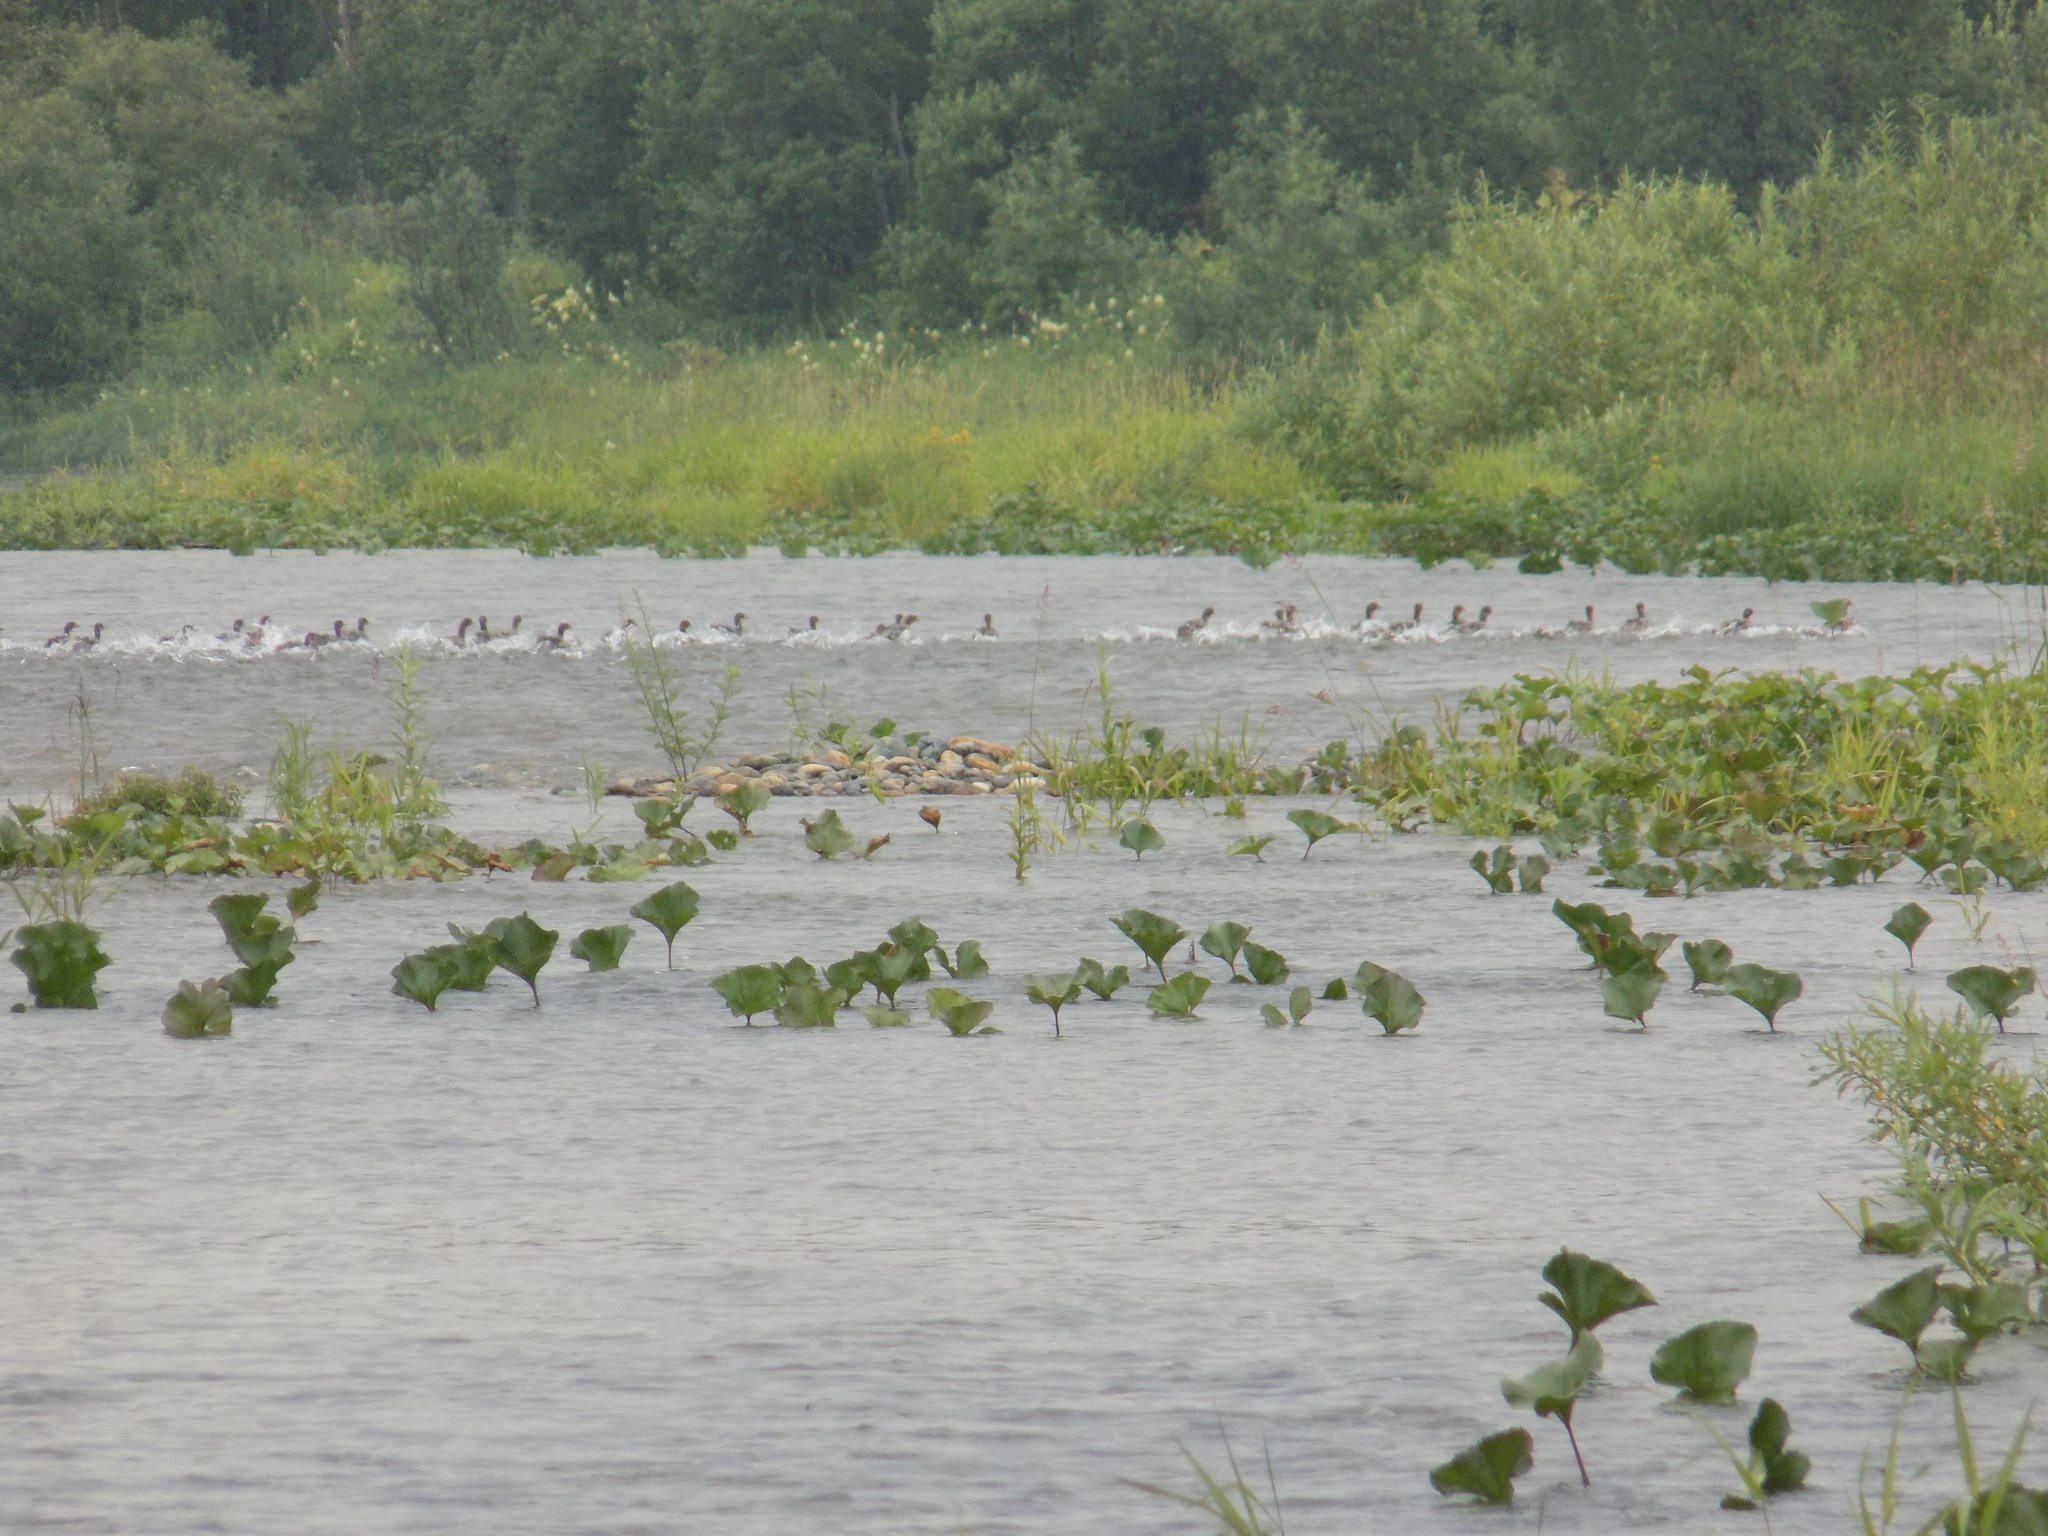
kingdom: Animalia
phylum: Chordata
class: Aves
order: Anseriformes
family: Anatidae
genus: Mergus
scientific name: Mergus merganser
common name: Common merganser
